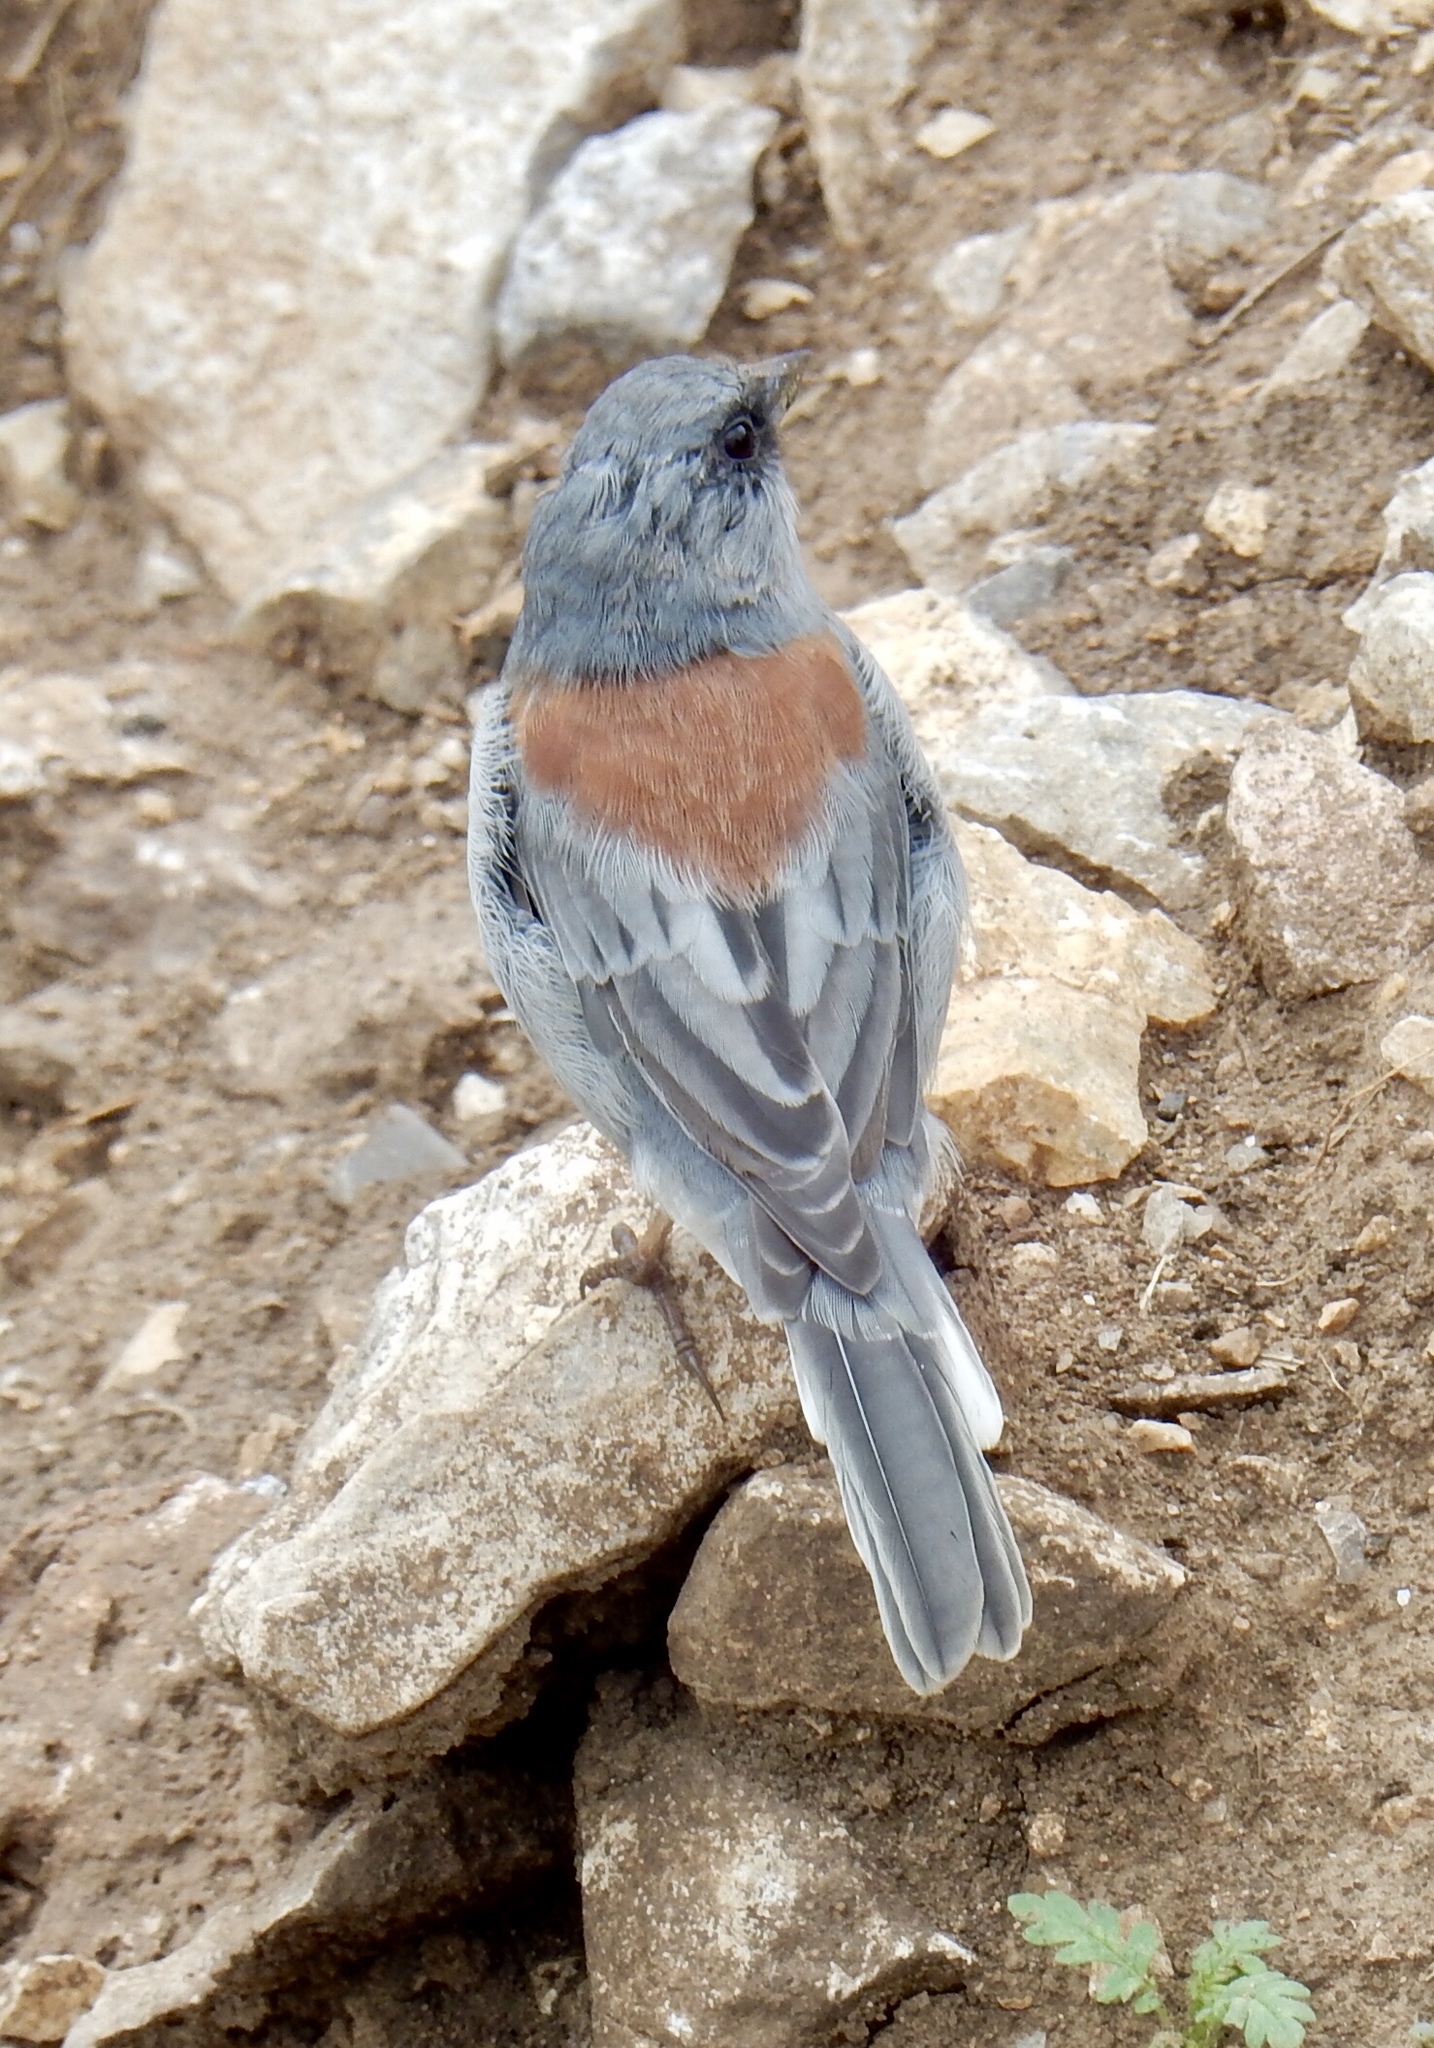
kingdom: Animalia
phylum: Chordata
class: Aves
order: Passeriformes
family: Passerellidae
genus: Junco
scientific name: Junco hyemalis
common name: Dark-eyed junco
